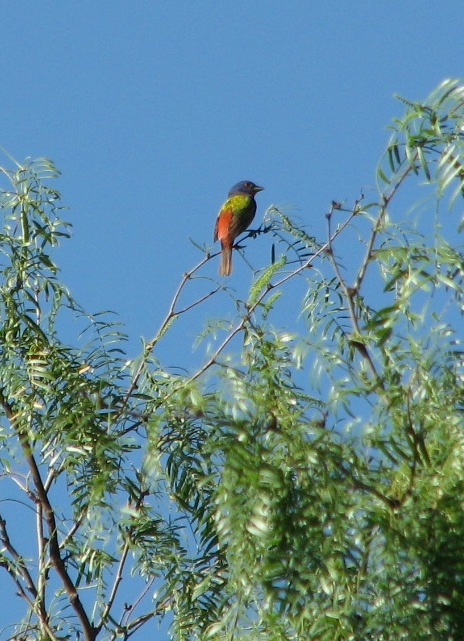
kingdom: Animalia
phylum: Chordata
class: Aves
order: Passeriformes
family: Cardinalidae
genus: Passerina
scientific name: Passerina ciris
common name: Painted bunting
